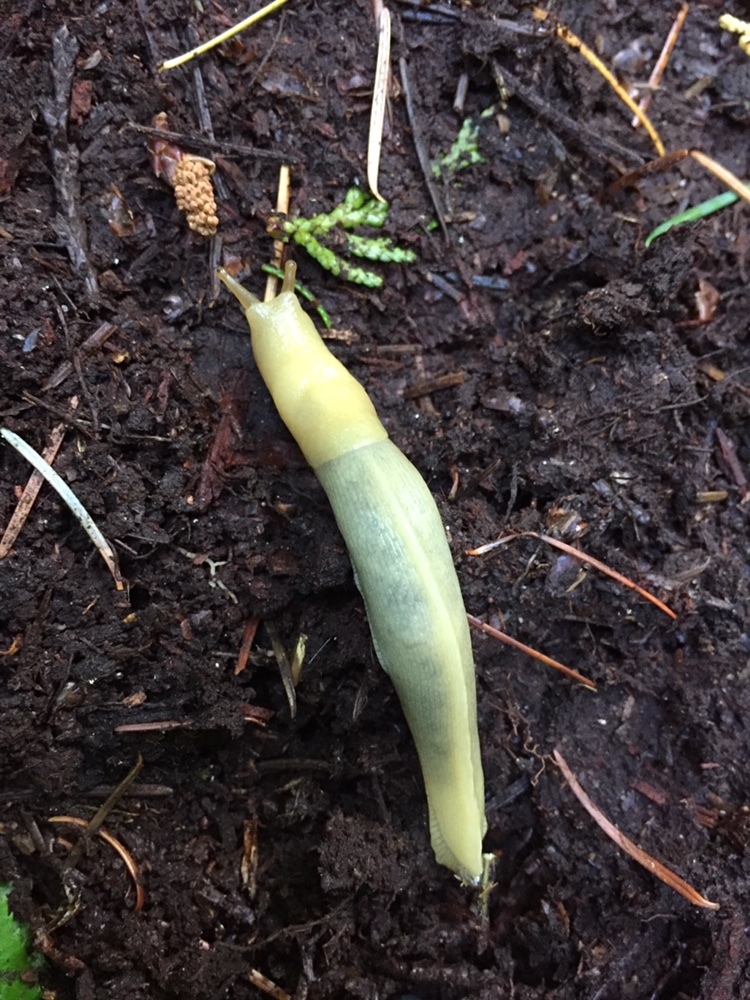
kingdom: Animalia
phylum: Mollusca
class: Gastropoda
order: Stylommatophora
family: Ariolimacidae
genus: Ariolimax
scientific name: Ariolimax columbianus
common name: Pacific banana slug
